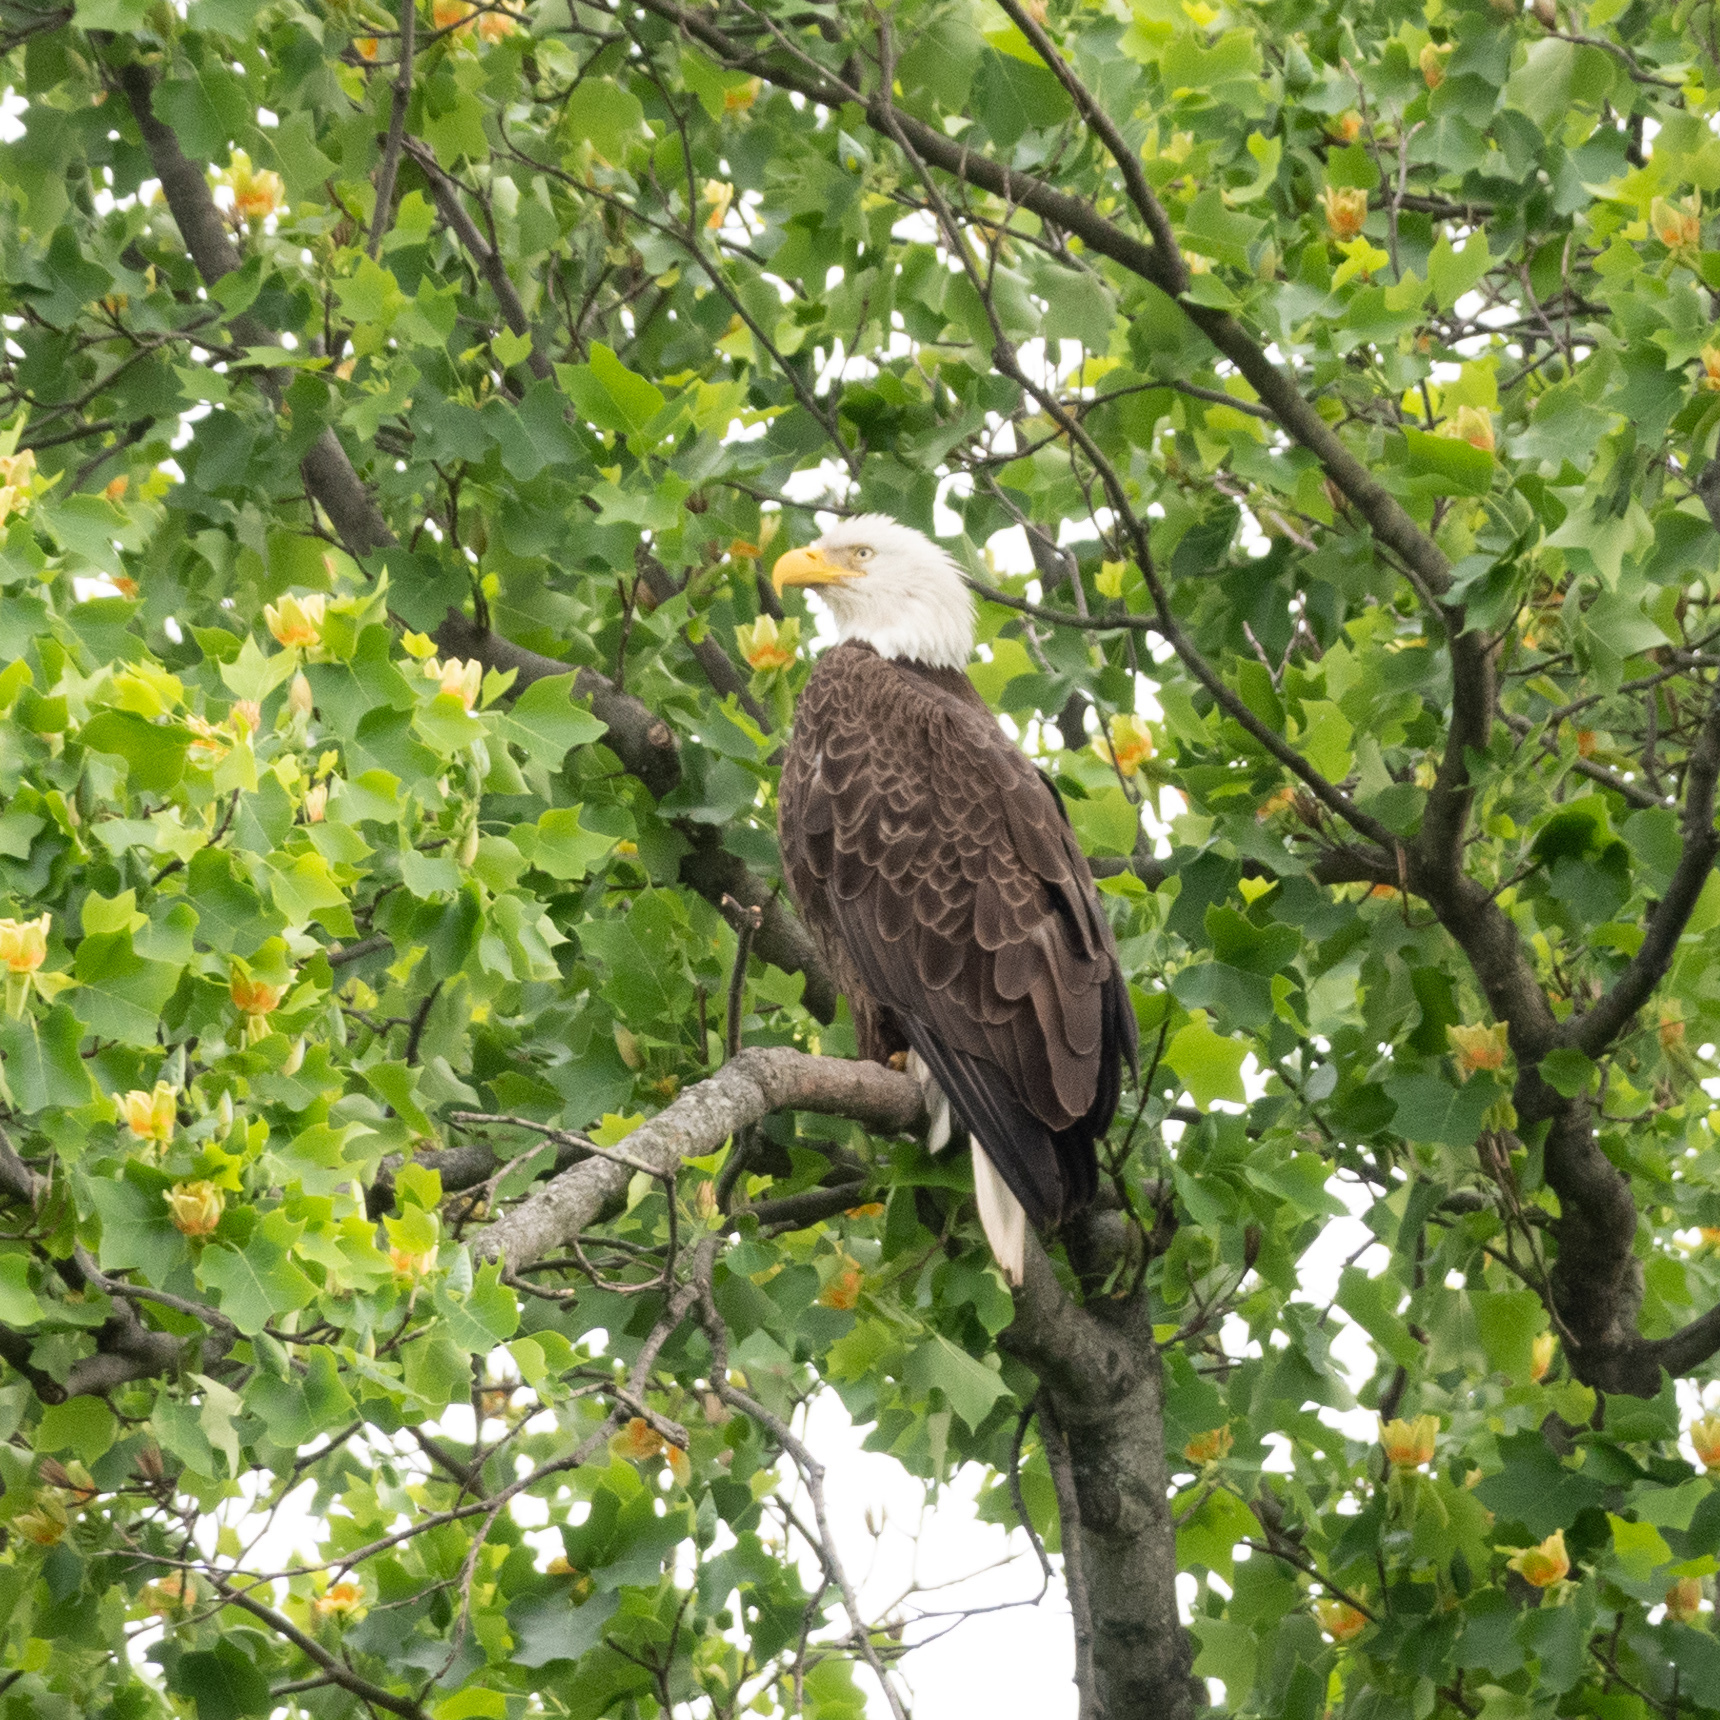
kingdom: Animalia
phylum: Chordata
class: Aves
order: Accipitriformes
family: Accipitridae
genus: Haliaeetus
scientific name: Haliaeetus leucocephalus
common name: Bald eagle
